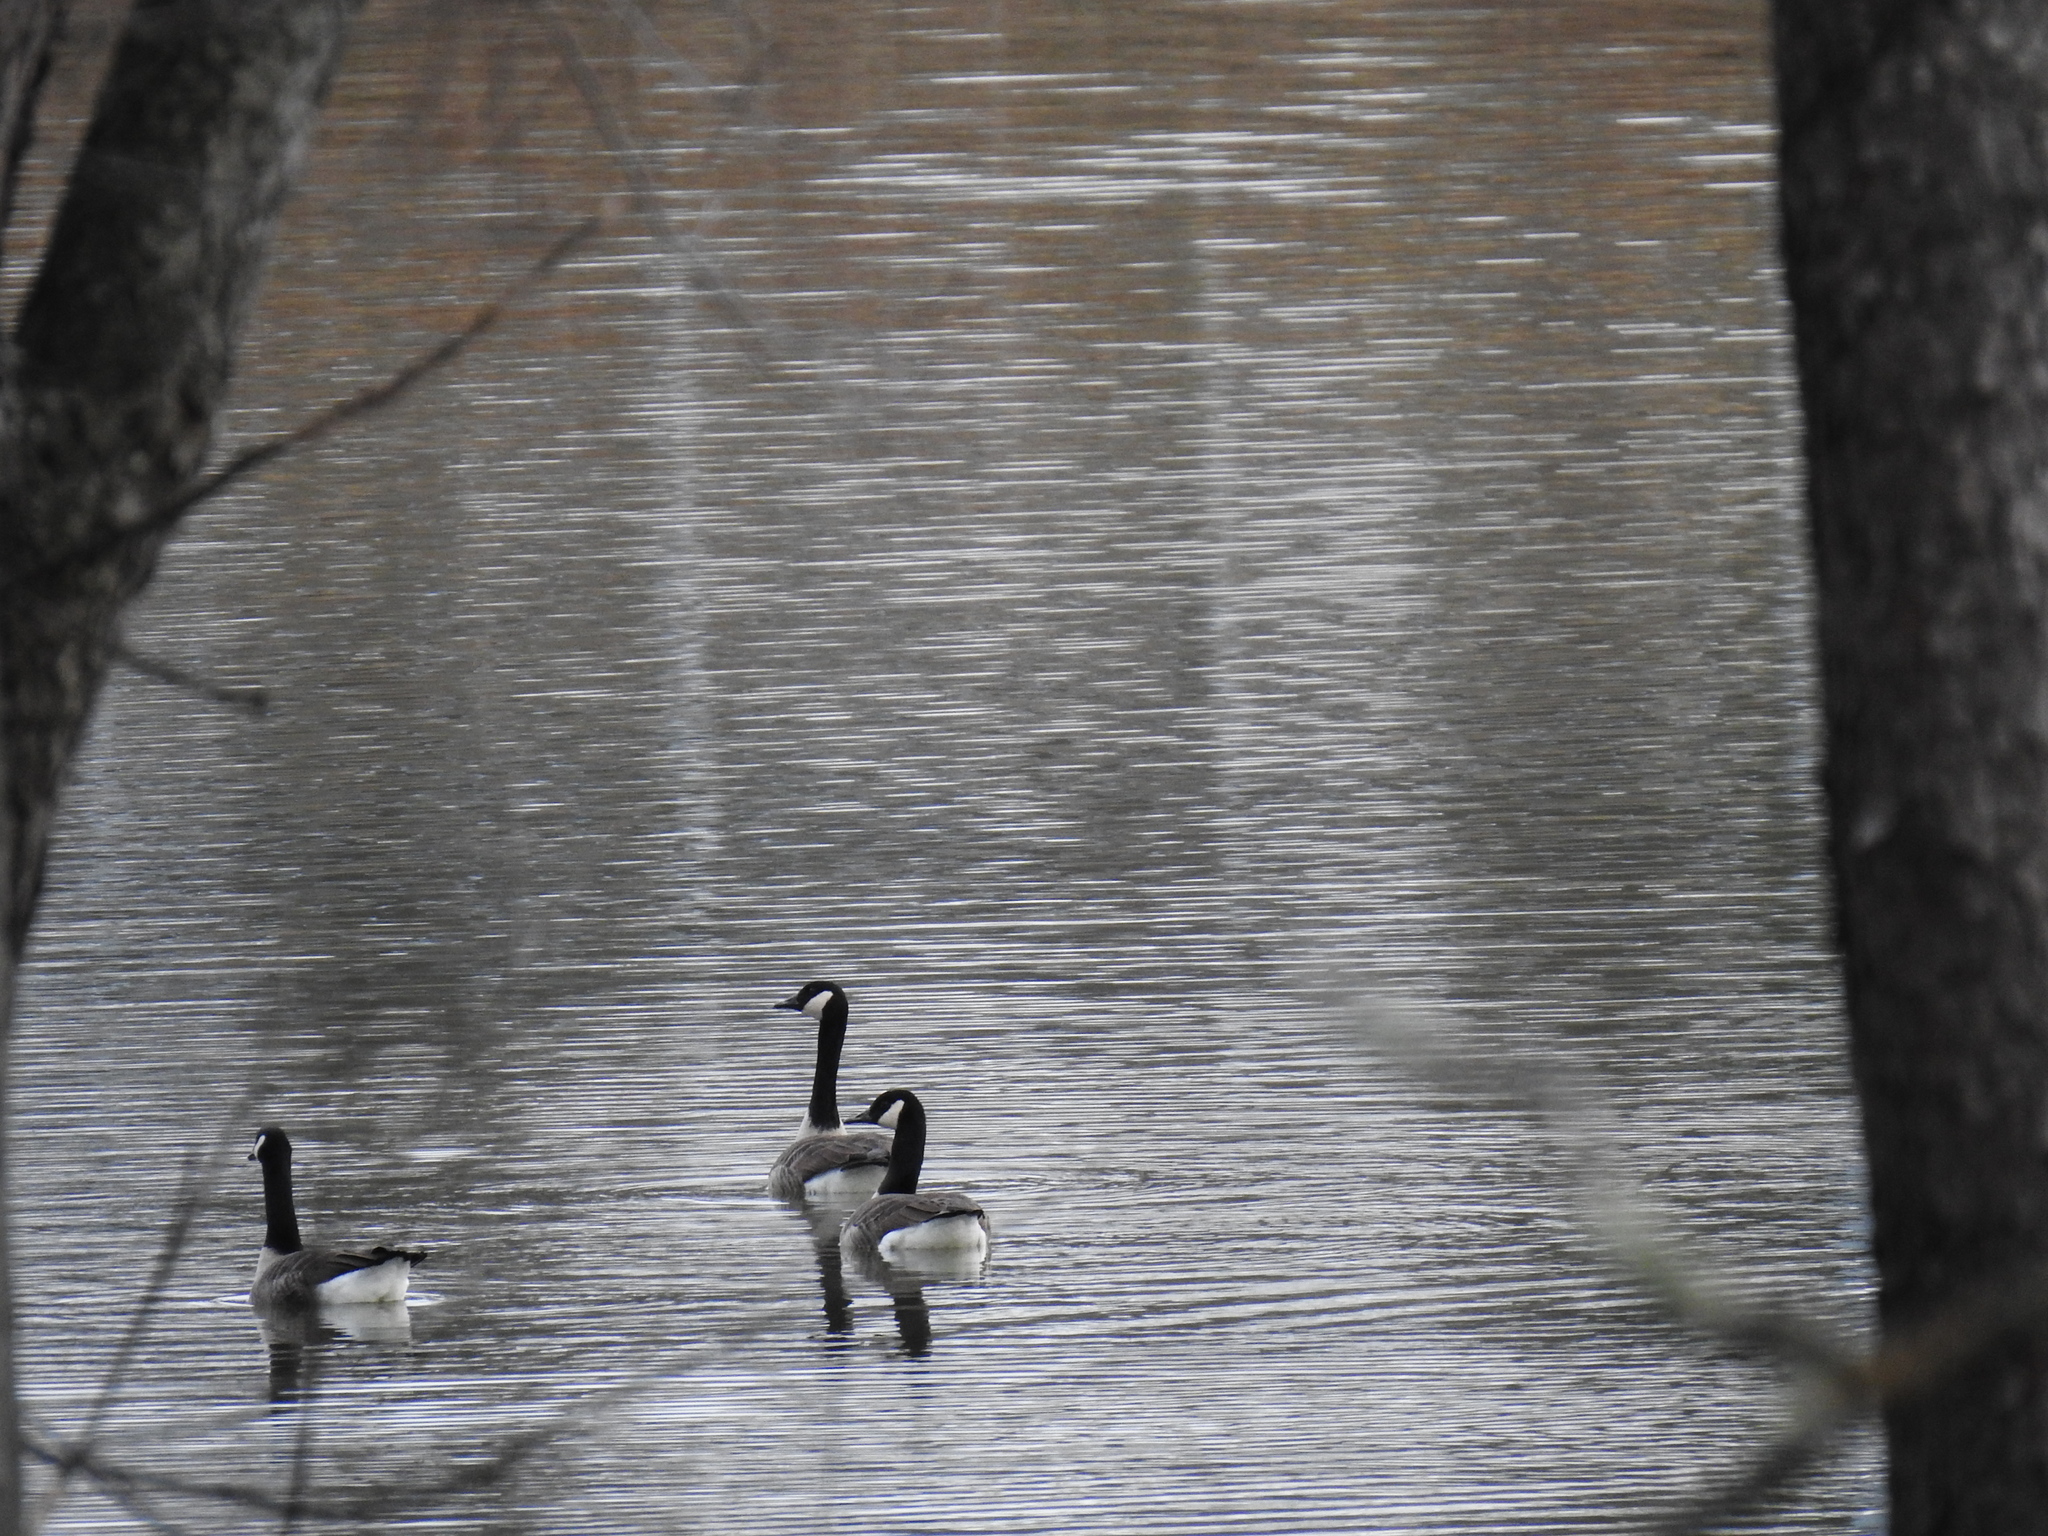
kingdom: Animalia
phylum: Chordata
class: Aves
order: Anseriformes
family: Anatidae
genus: Branta
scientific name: Branta canadensis
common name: Canada goose
